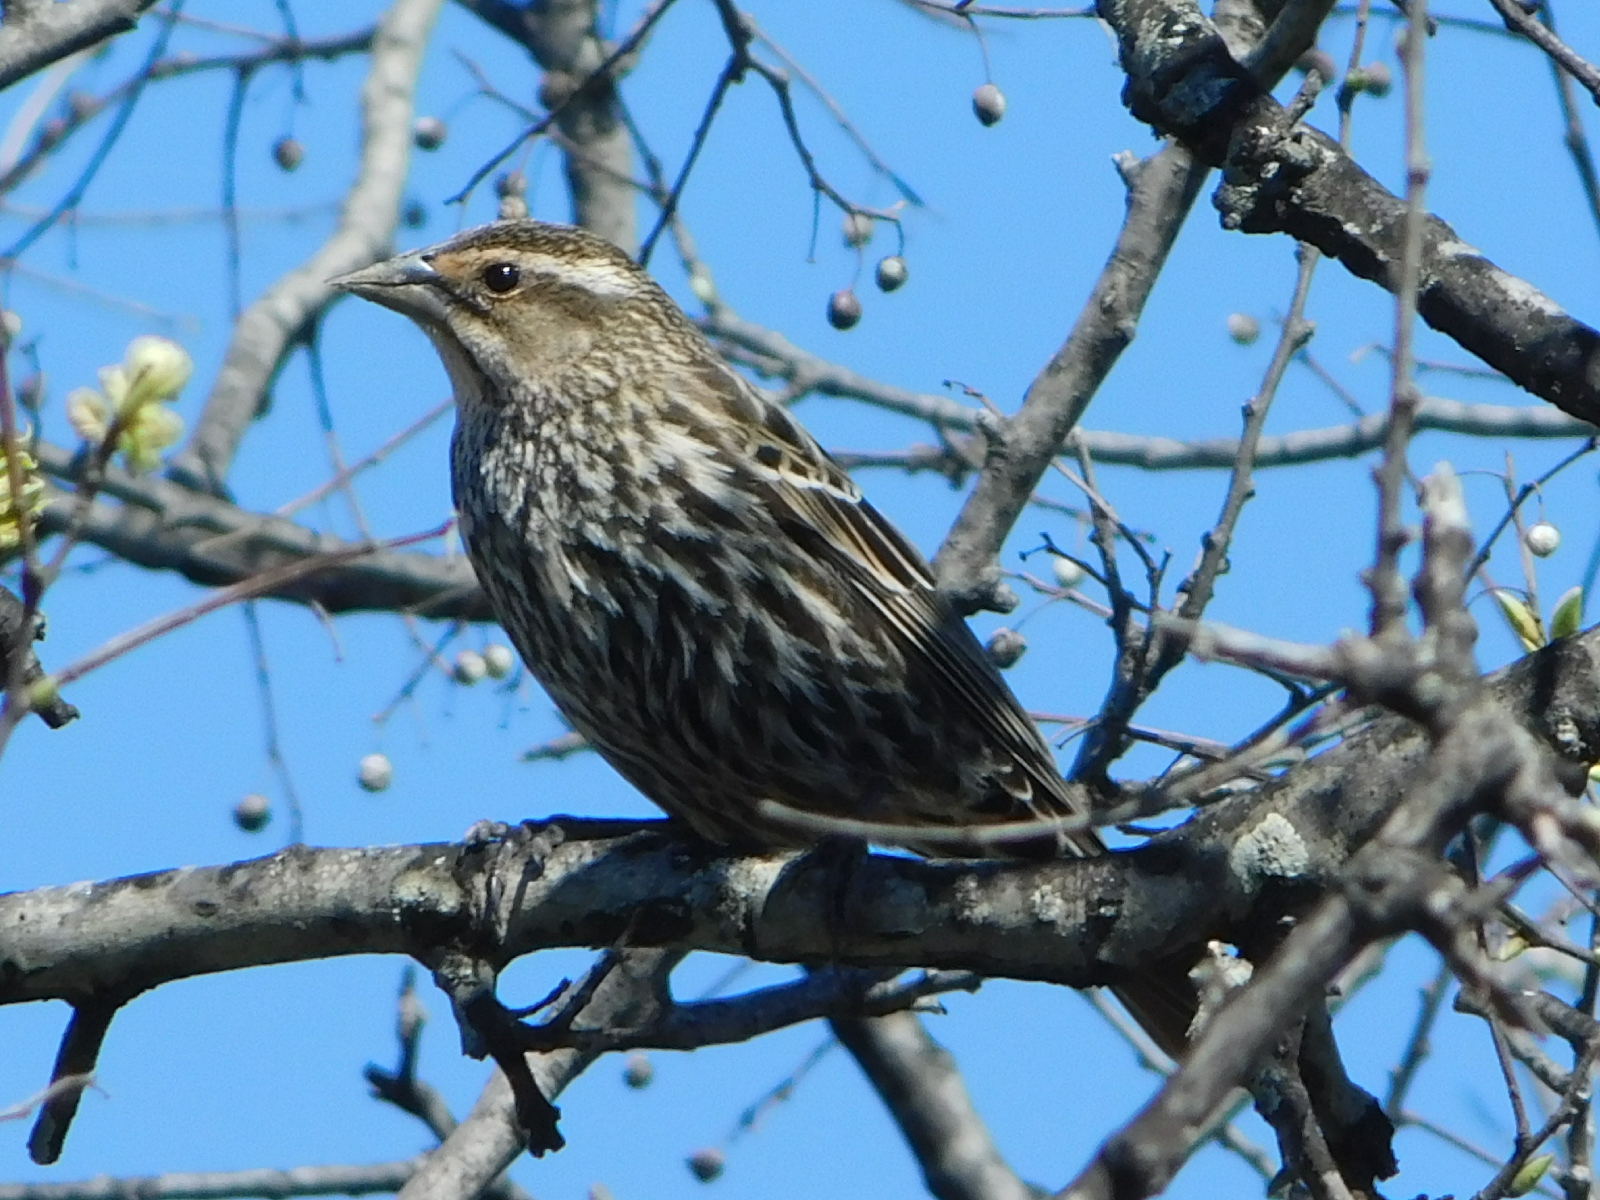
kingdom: Animalia
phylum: Chordata
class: Aves
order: Passeriformes
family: Icteridae
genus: Agelaius
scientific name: Agelaius phoeniceus
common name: Red-winged blackbird
